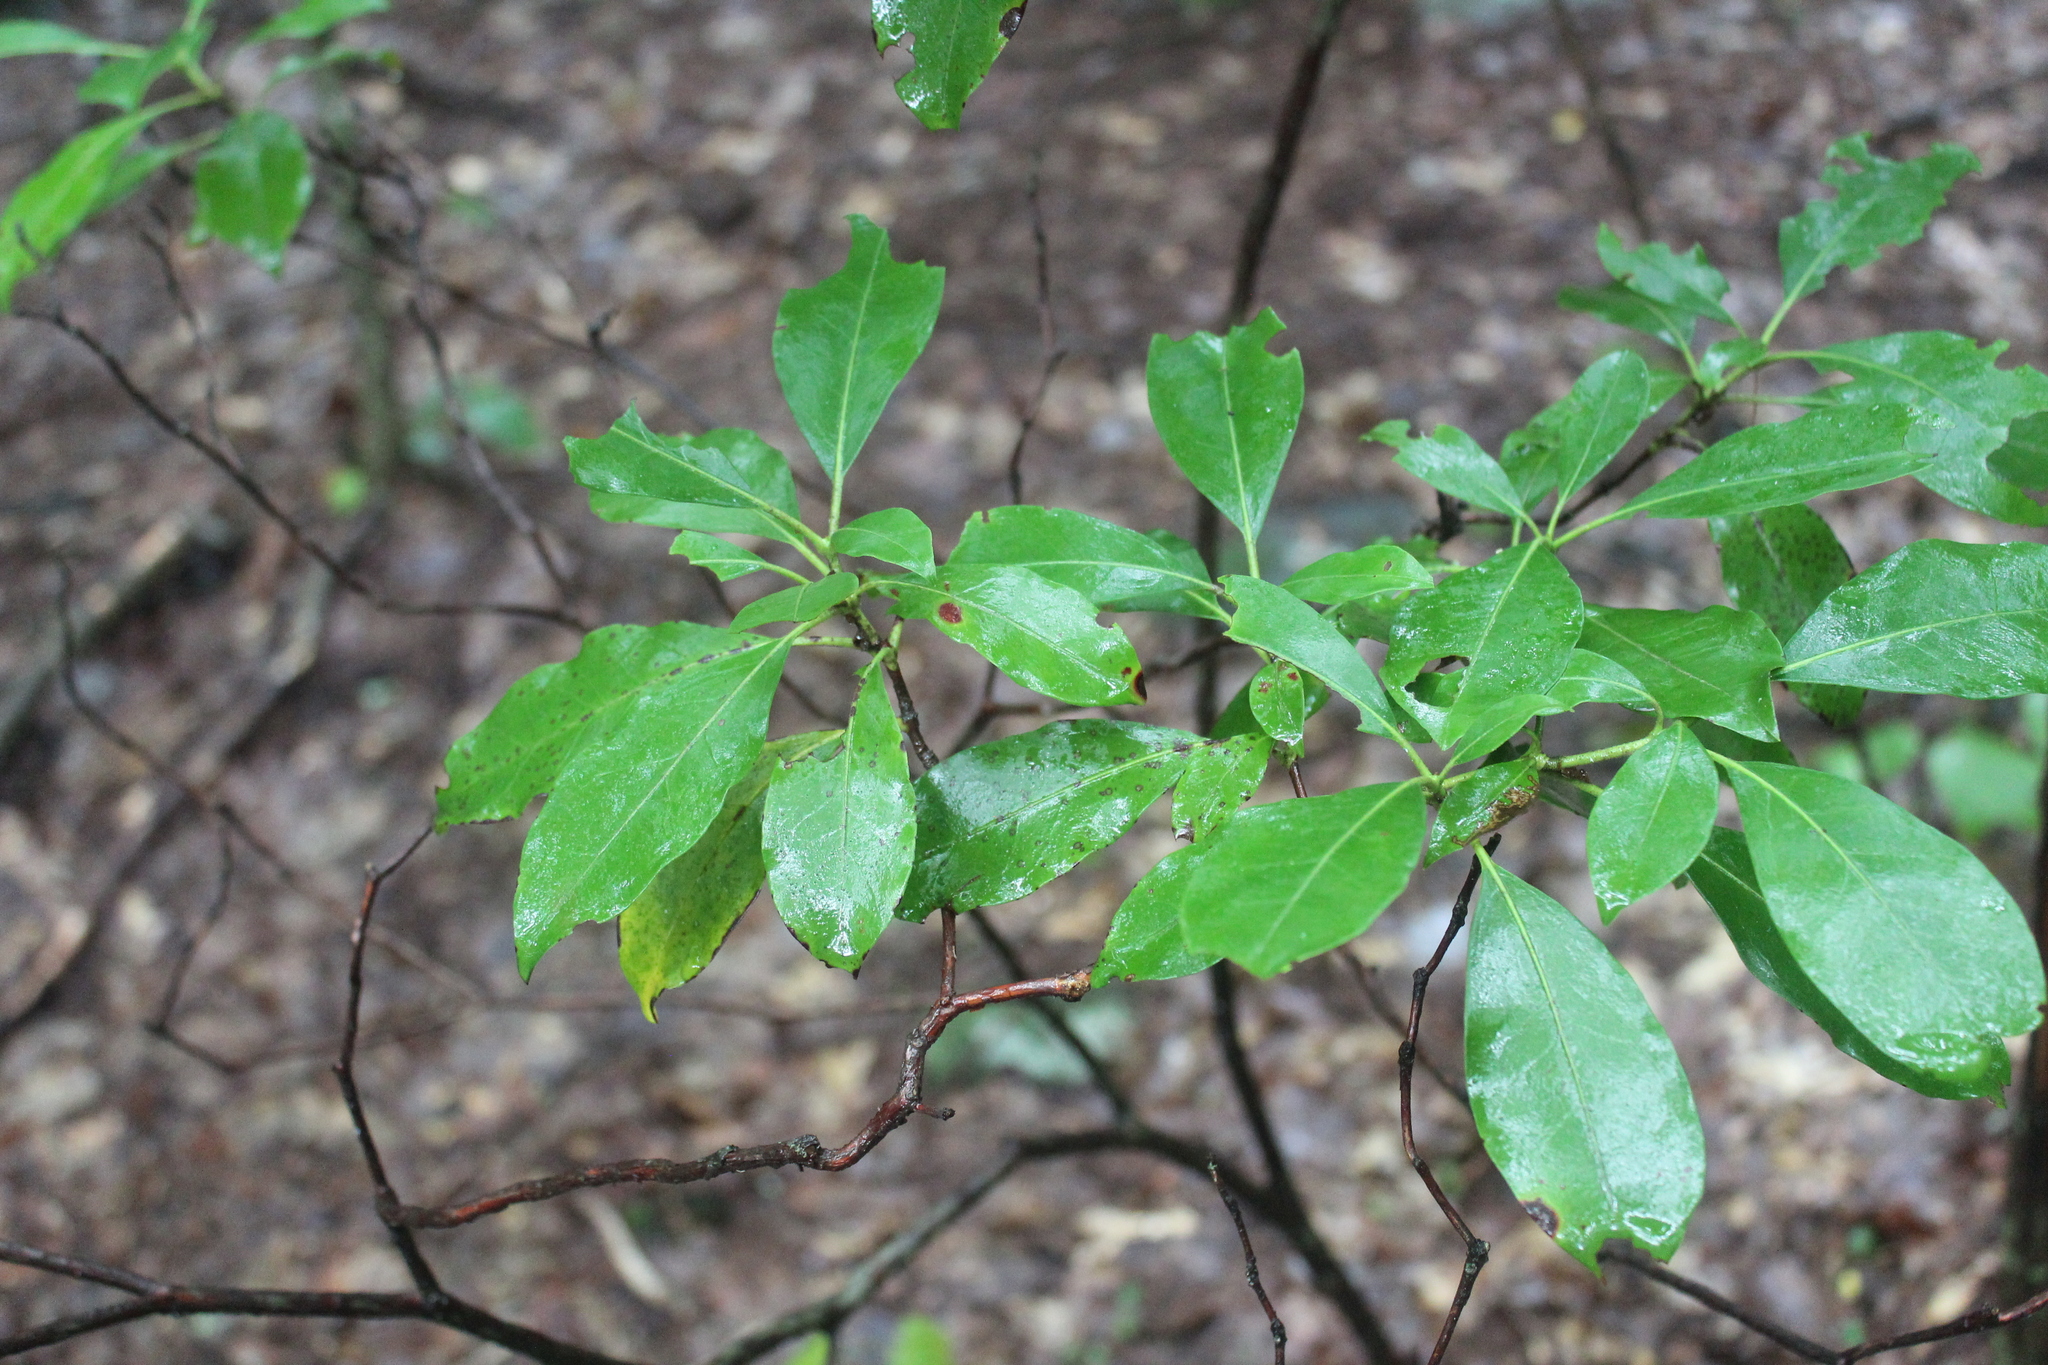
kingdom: Plantae
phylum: Tracheophyta
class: Magnoliopsida
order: Ericales
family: Ericaceae
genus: Kalmia
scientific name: Kalmia latifolia
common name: Mountain-laurel
